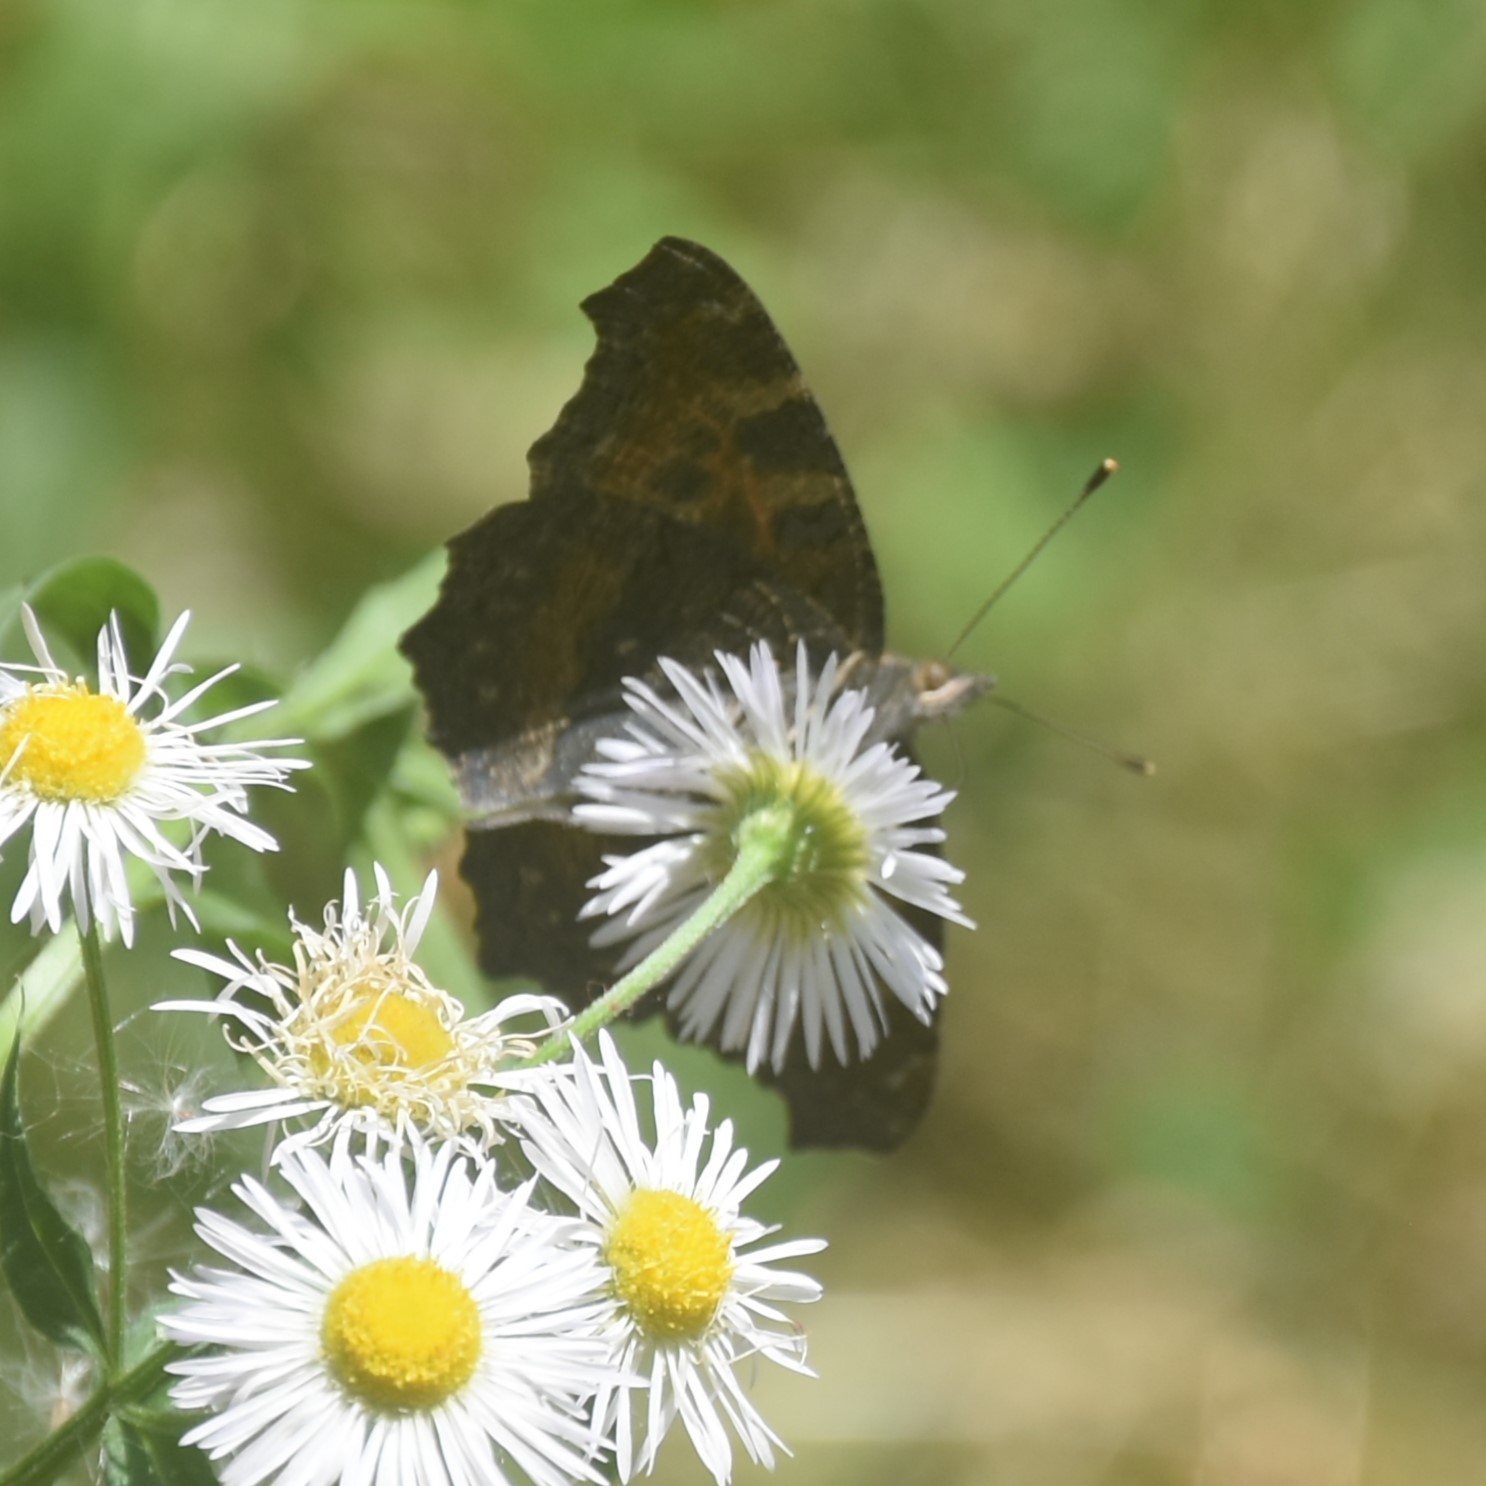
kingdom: Animalia
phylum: Arthropoda
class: Insecta
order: Lepidoptera
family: Nymphalidae
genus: Aglais
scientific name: Aglais caschmirensis
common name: Indian tortoiseshell
